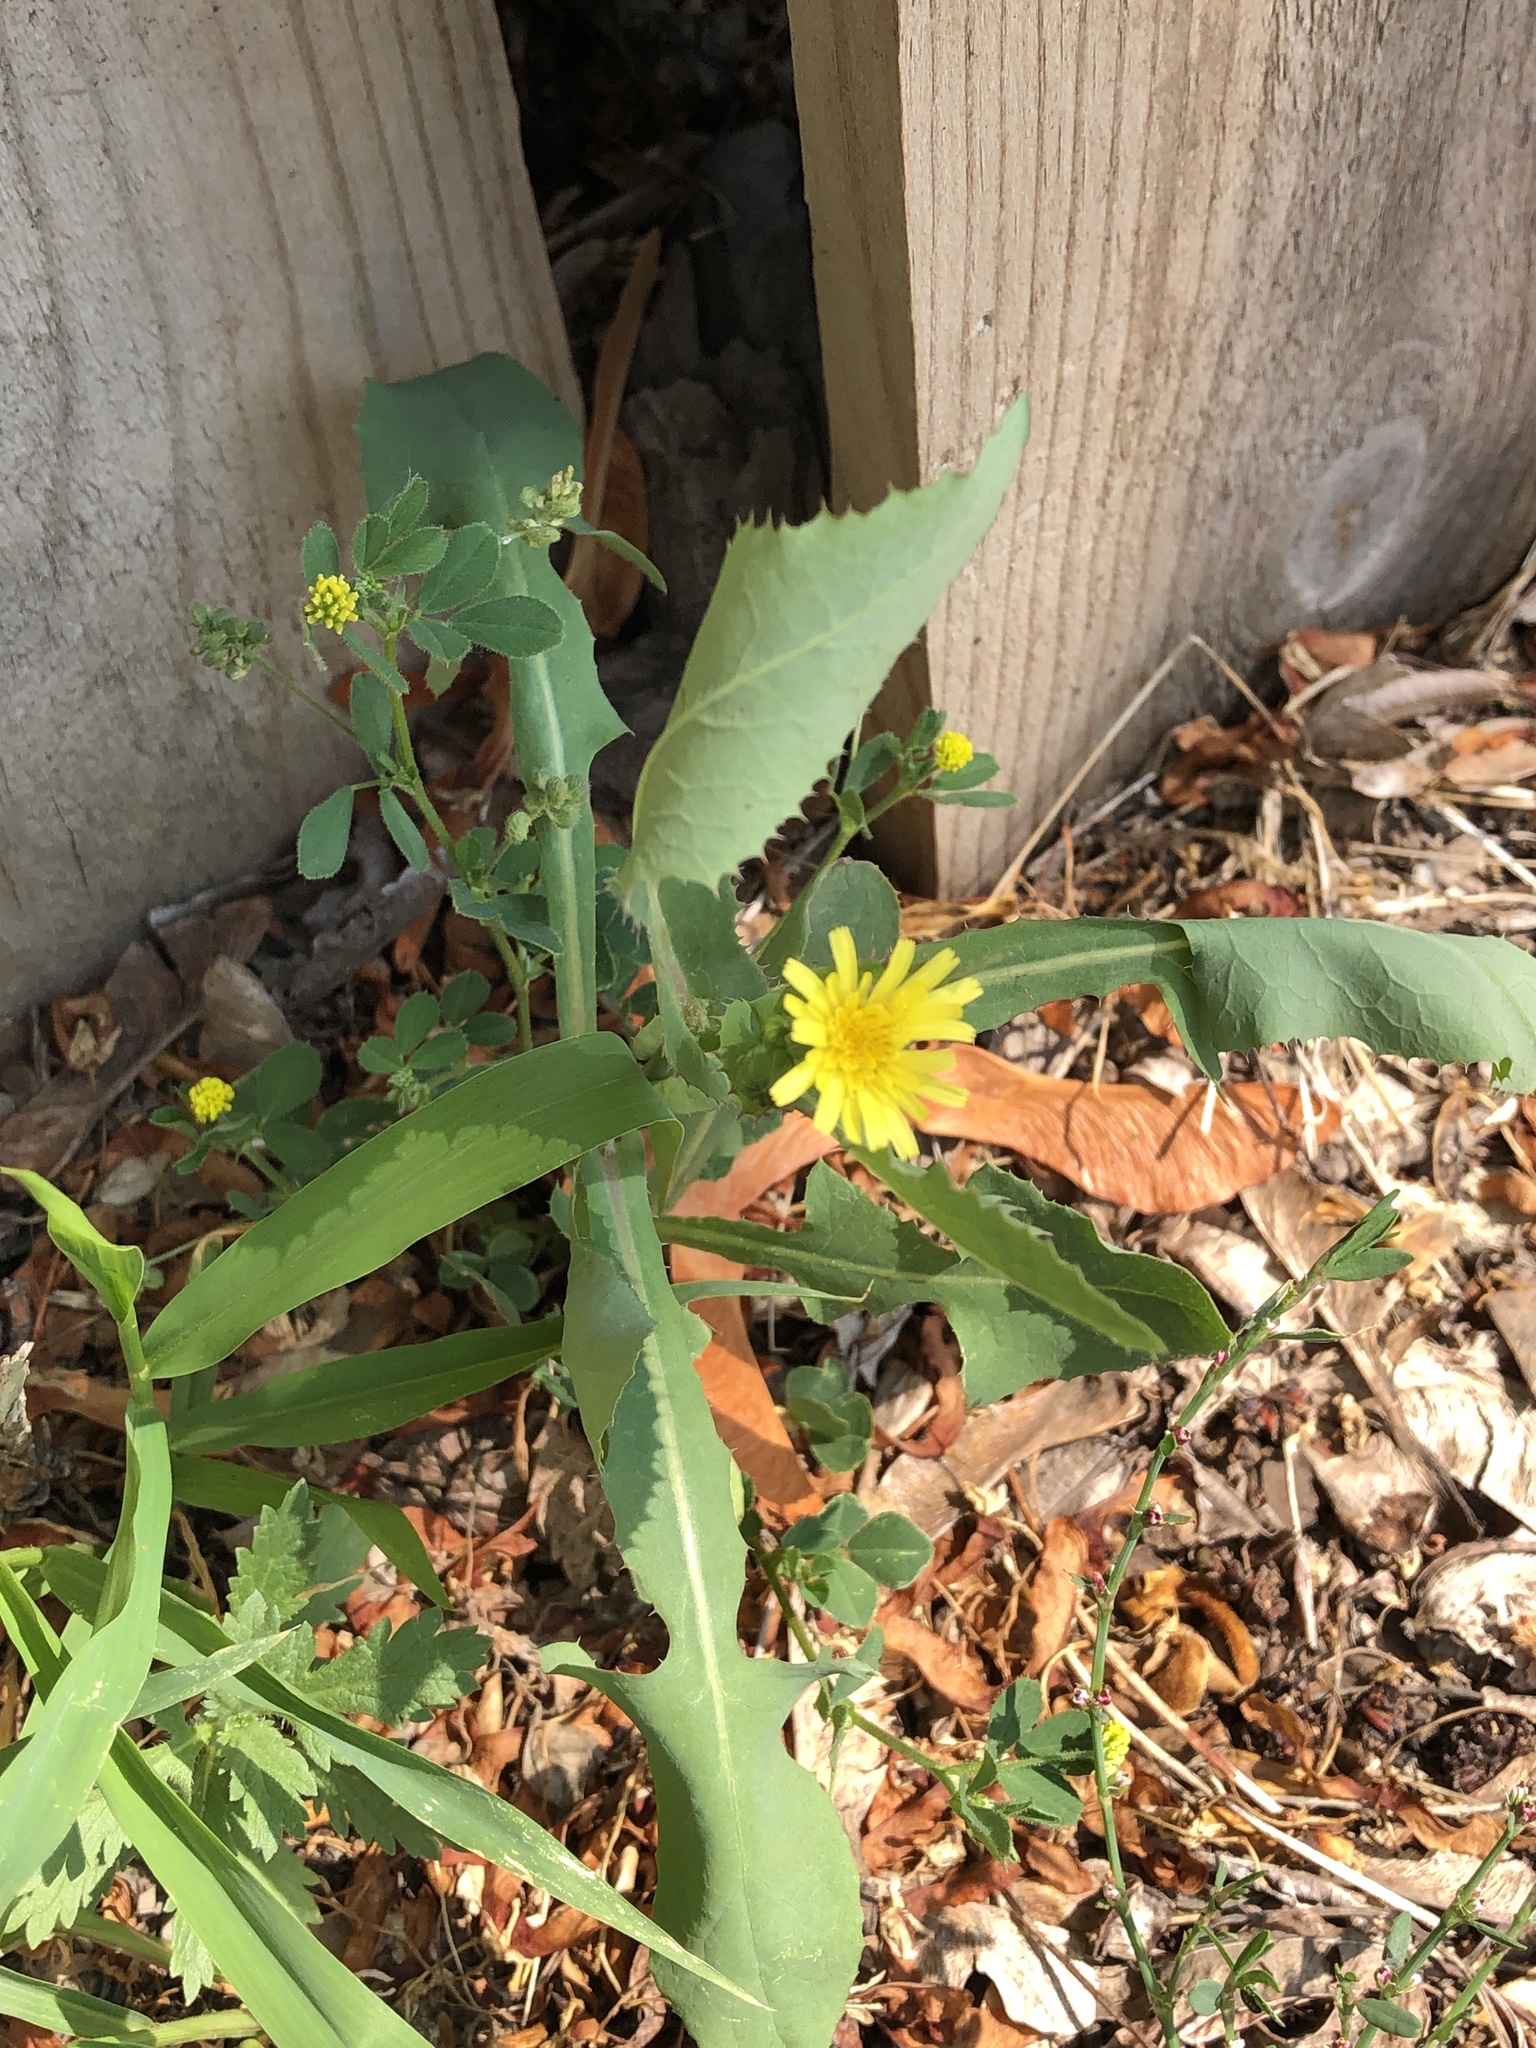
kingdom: Plantae
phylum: Tracheophyta
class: Magnoliopsida
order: Asterales
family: Asteraceae
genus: Sonchus
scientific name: Sonchus oleraceus
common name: Common sowthistle
